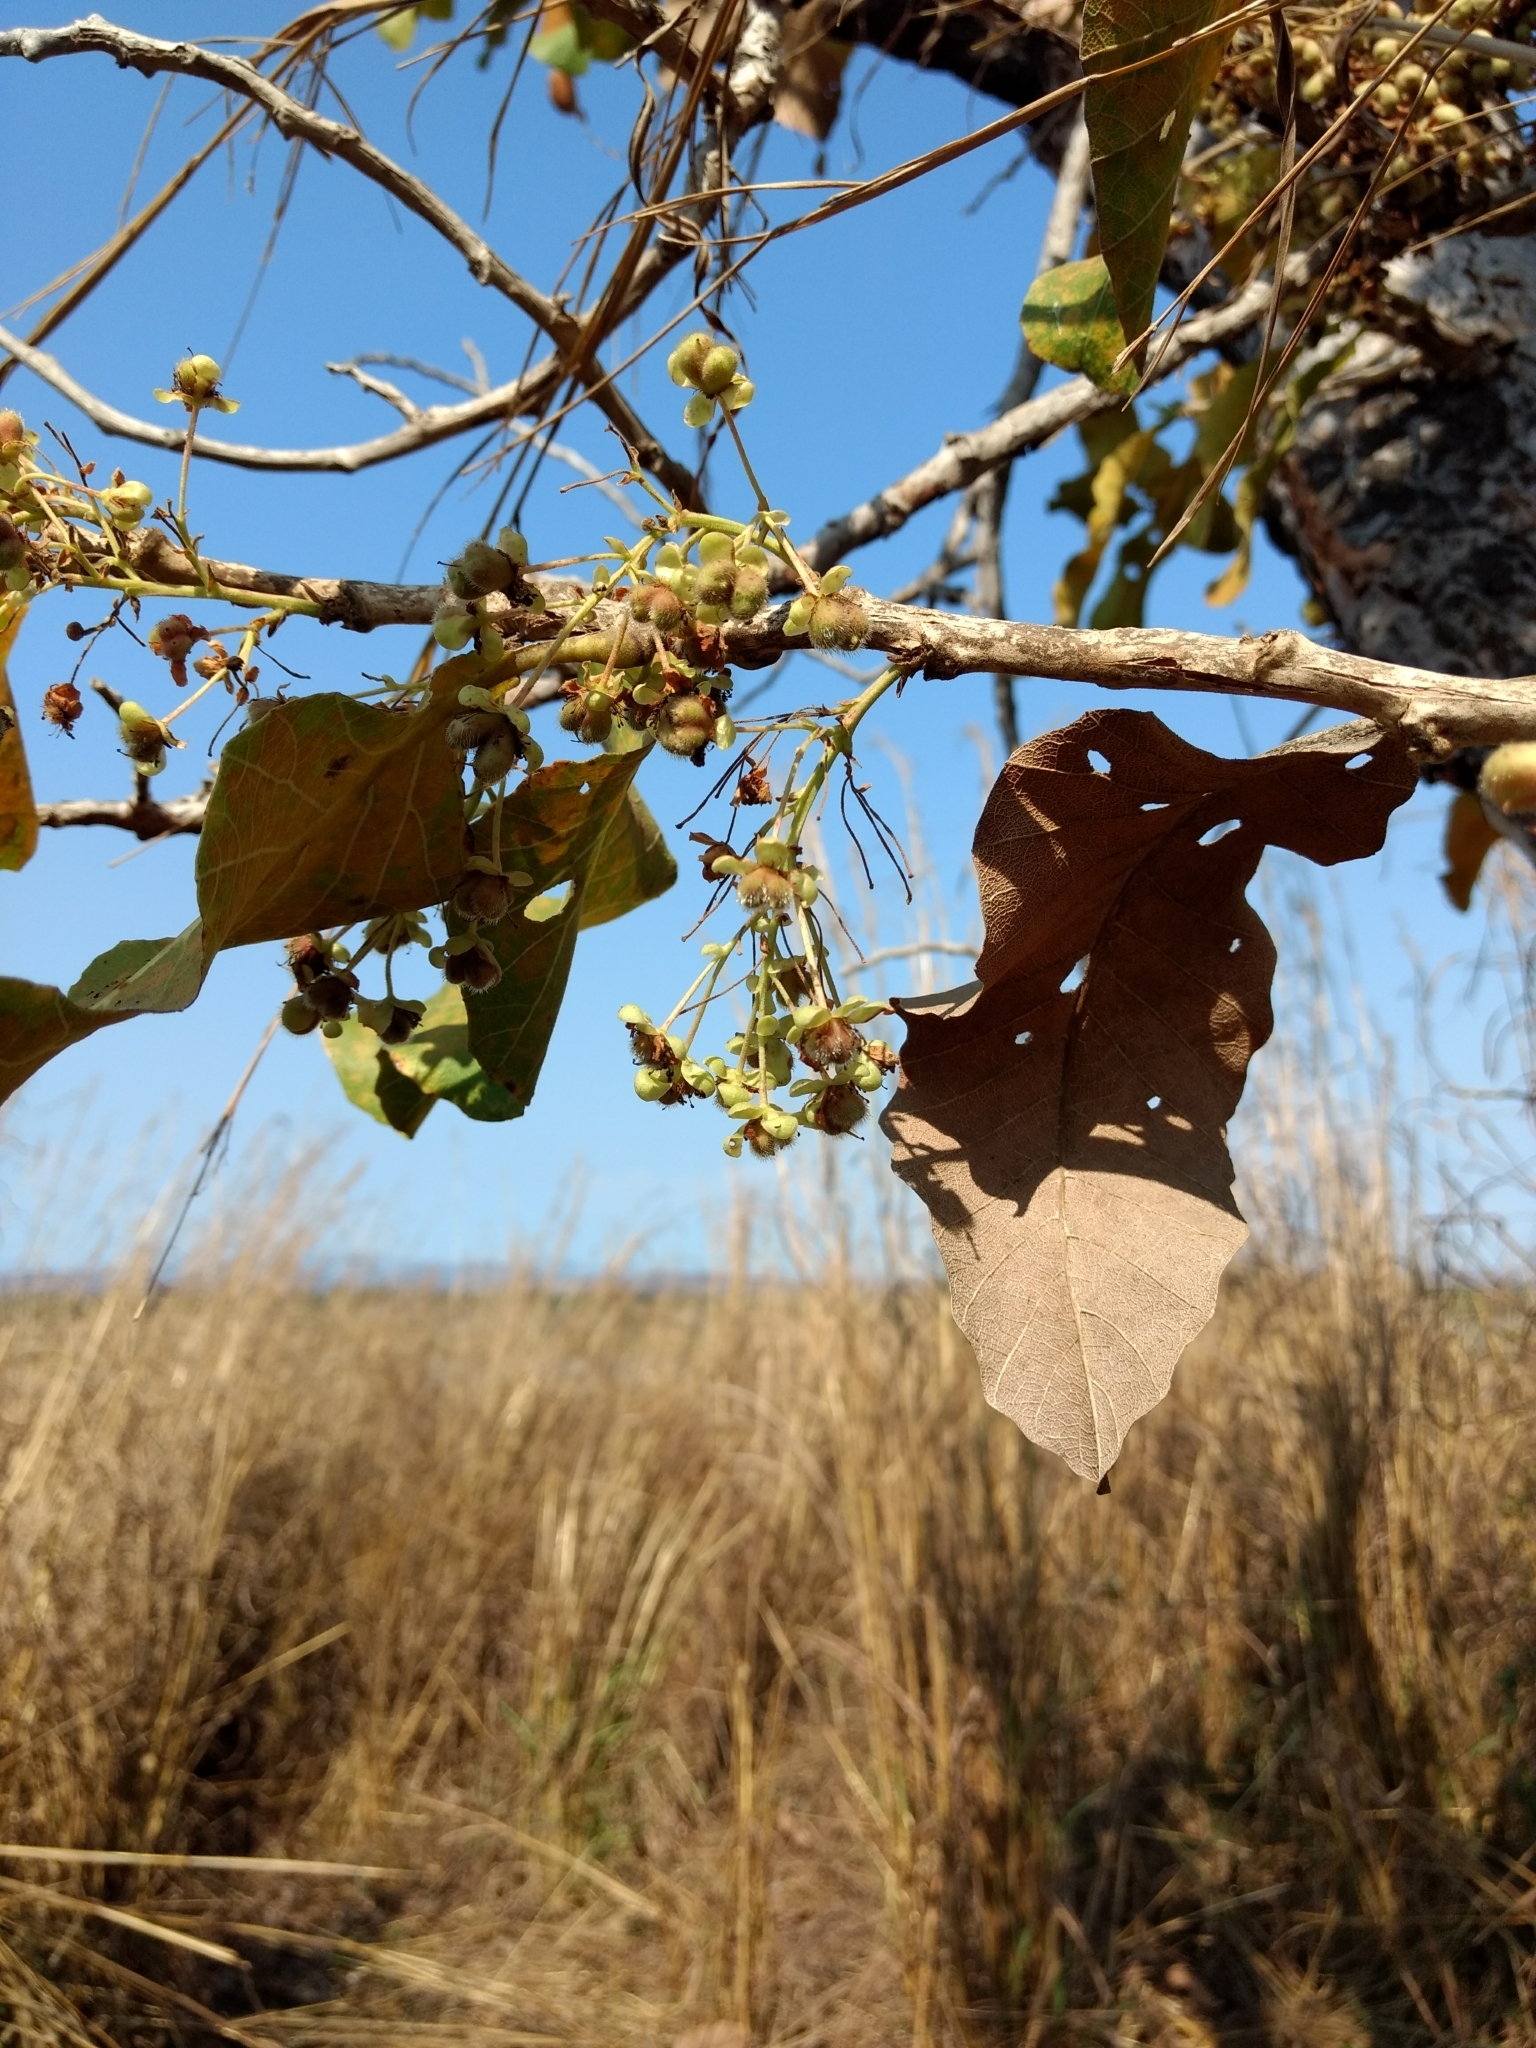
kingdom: Plantae
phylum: Tracheophyta
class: Magnoliopsida
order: Ericales
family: Lecythidaceae
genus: Couroupita
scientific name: Couroupita guianensis
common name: Cannonball tree
